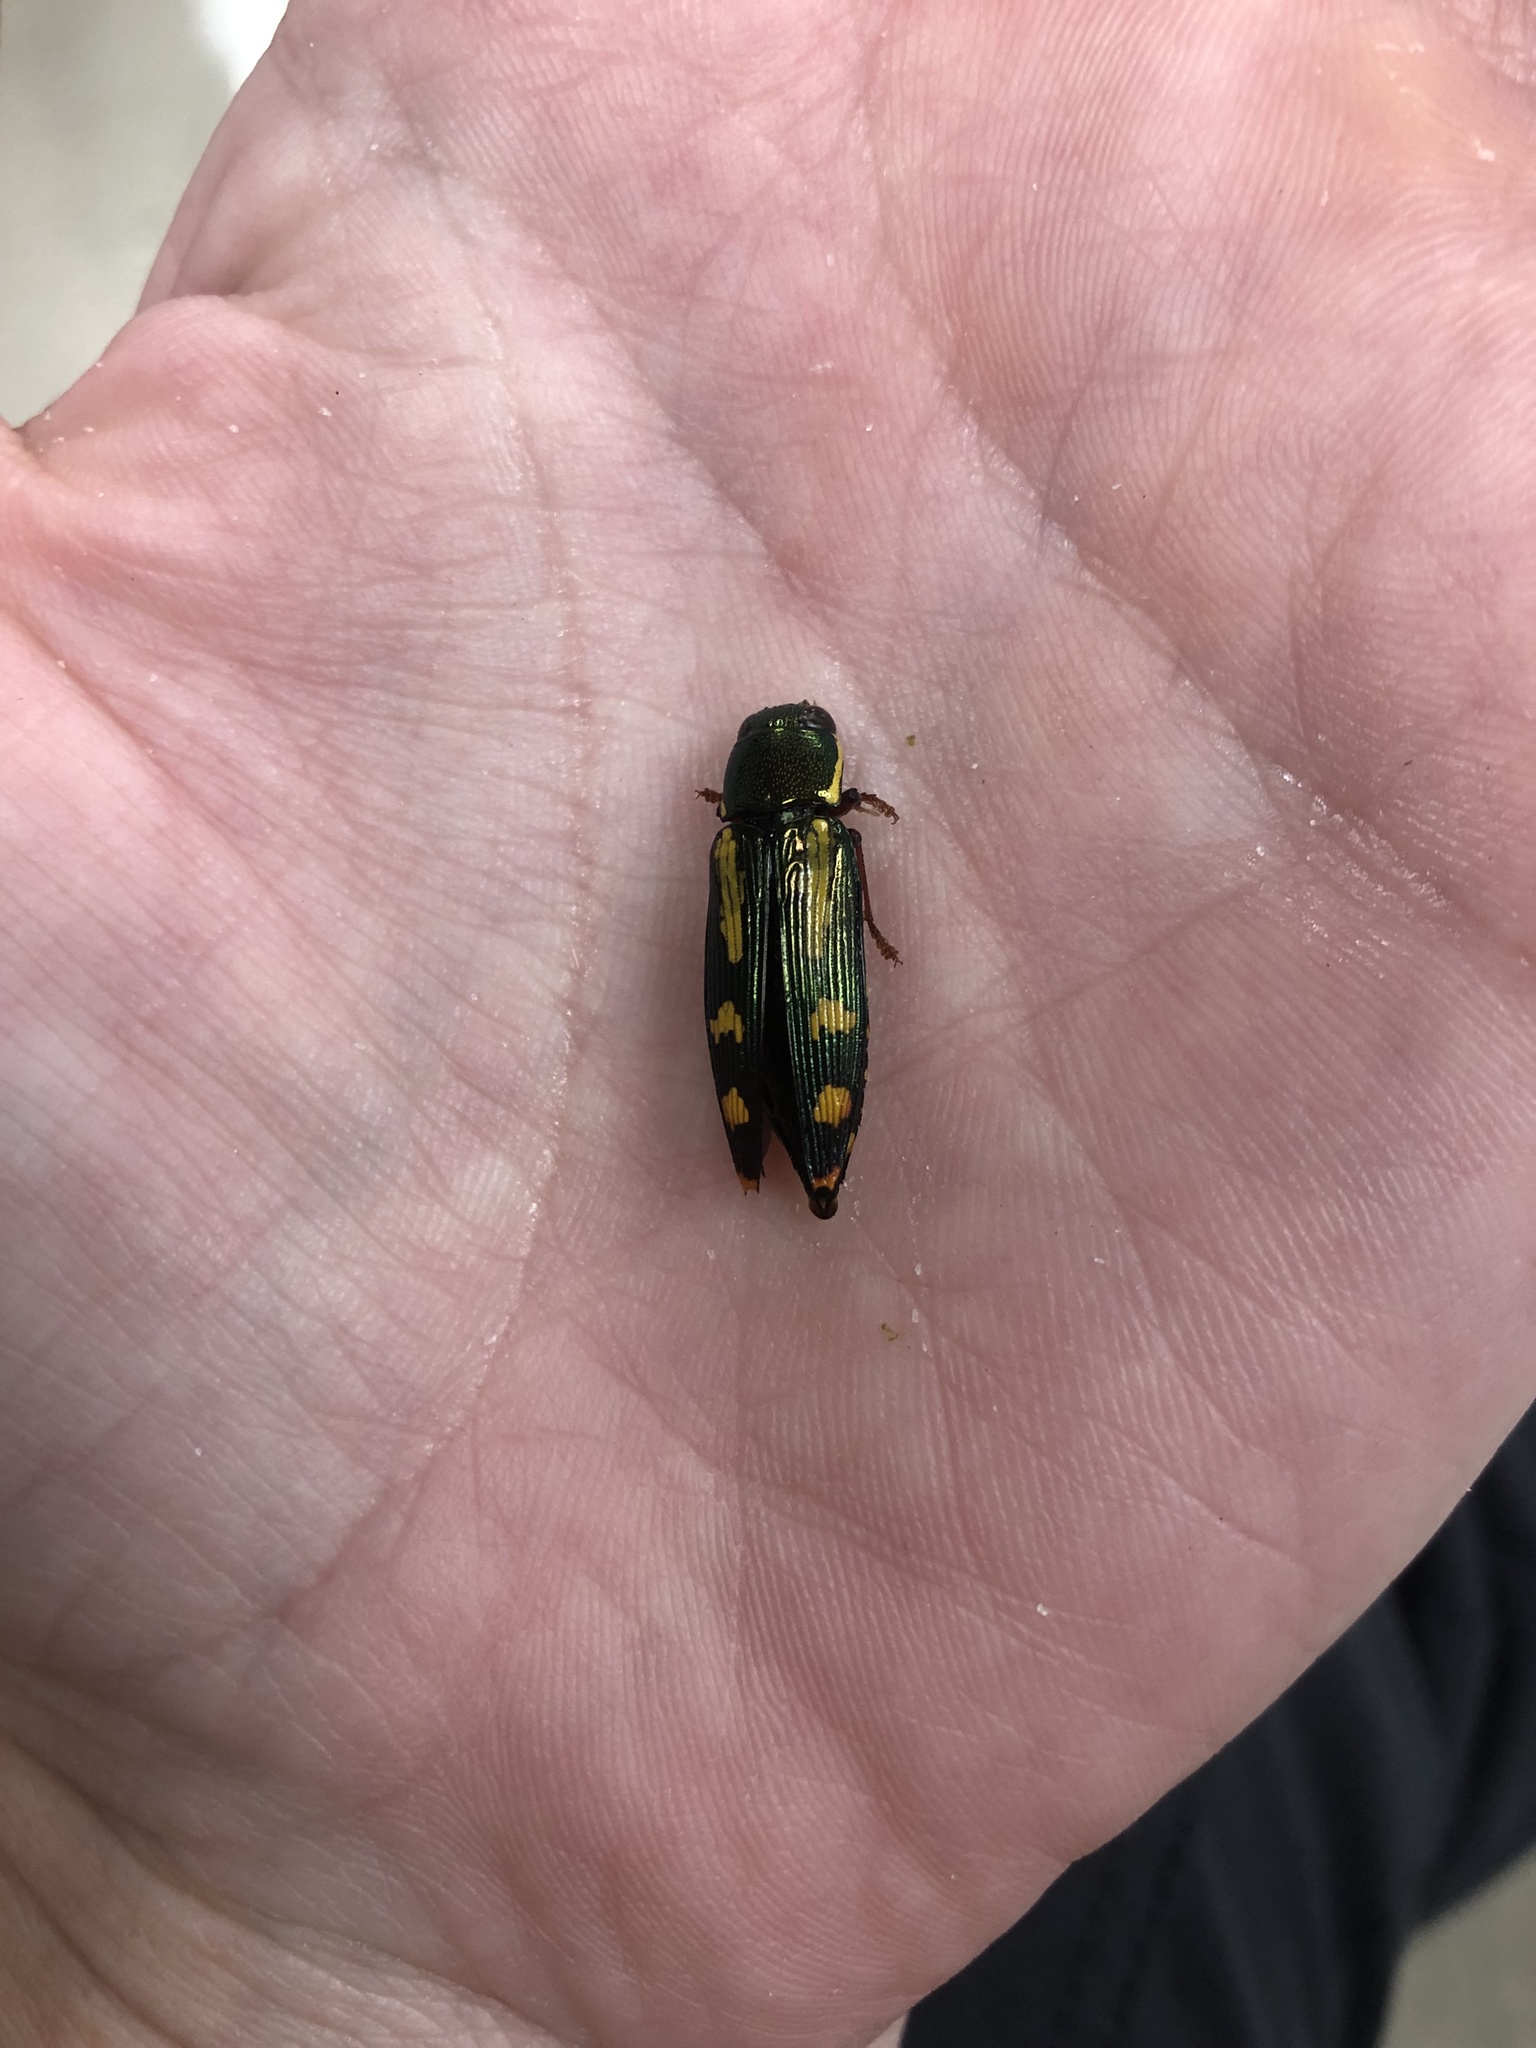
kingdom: Animalia
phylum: Arthropoda
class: Insecta
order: Coleoptera
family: Buprestidae
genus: Buprestis
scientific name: Buprestis rufipes
